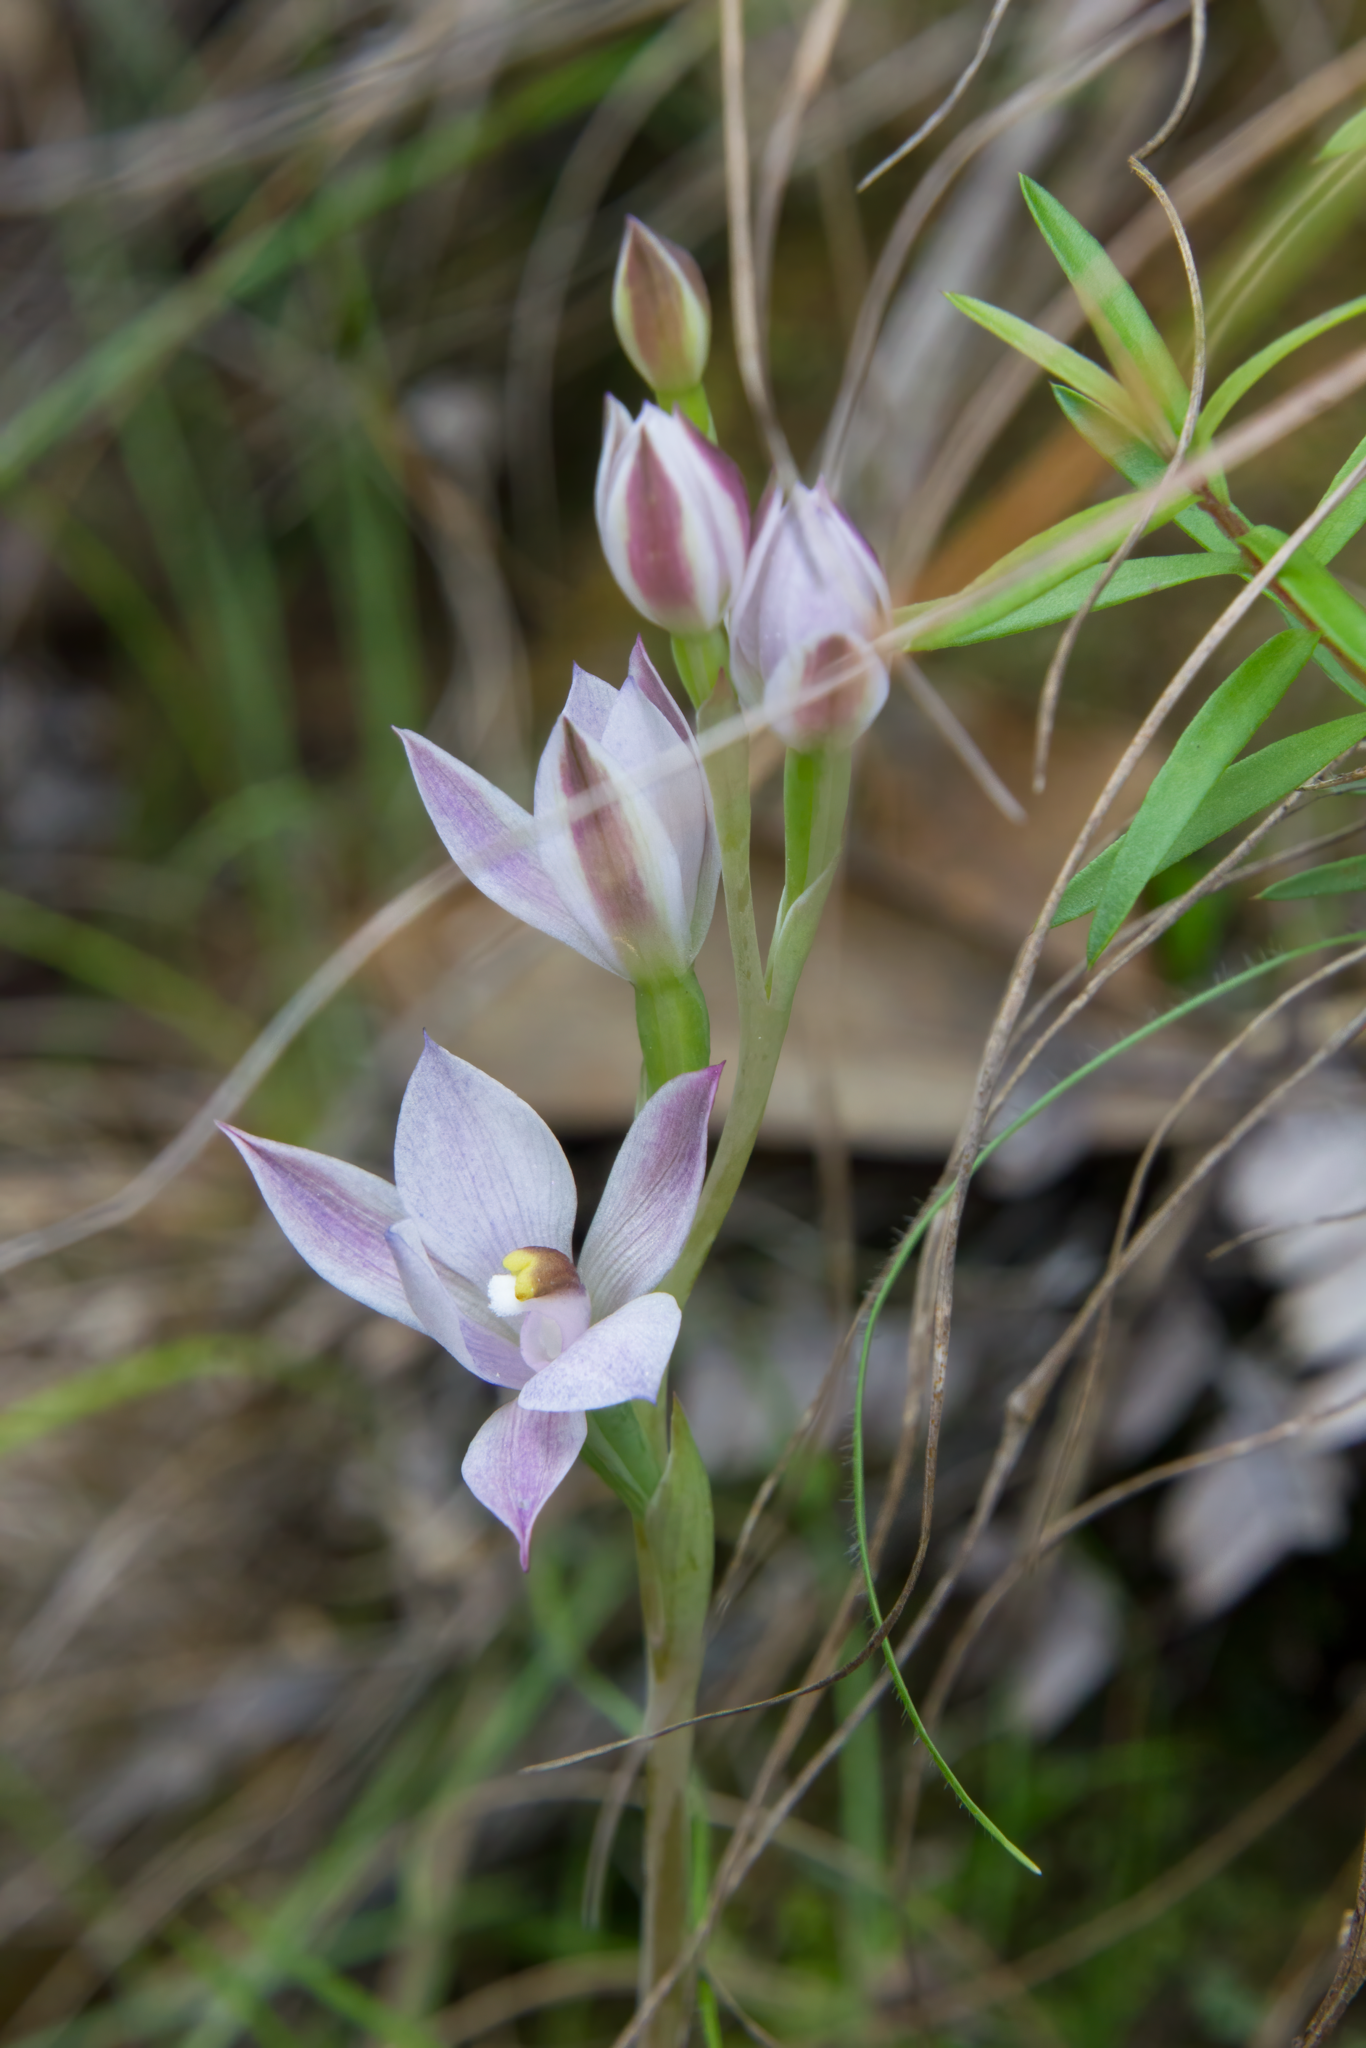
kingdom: Plantae
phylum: Tracheophyta
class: Liliopsida
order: Asparagales
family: Orchidaceae
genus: Thelymitra
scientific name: Thelymitra longifolia
